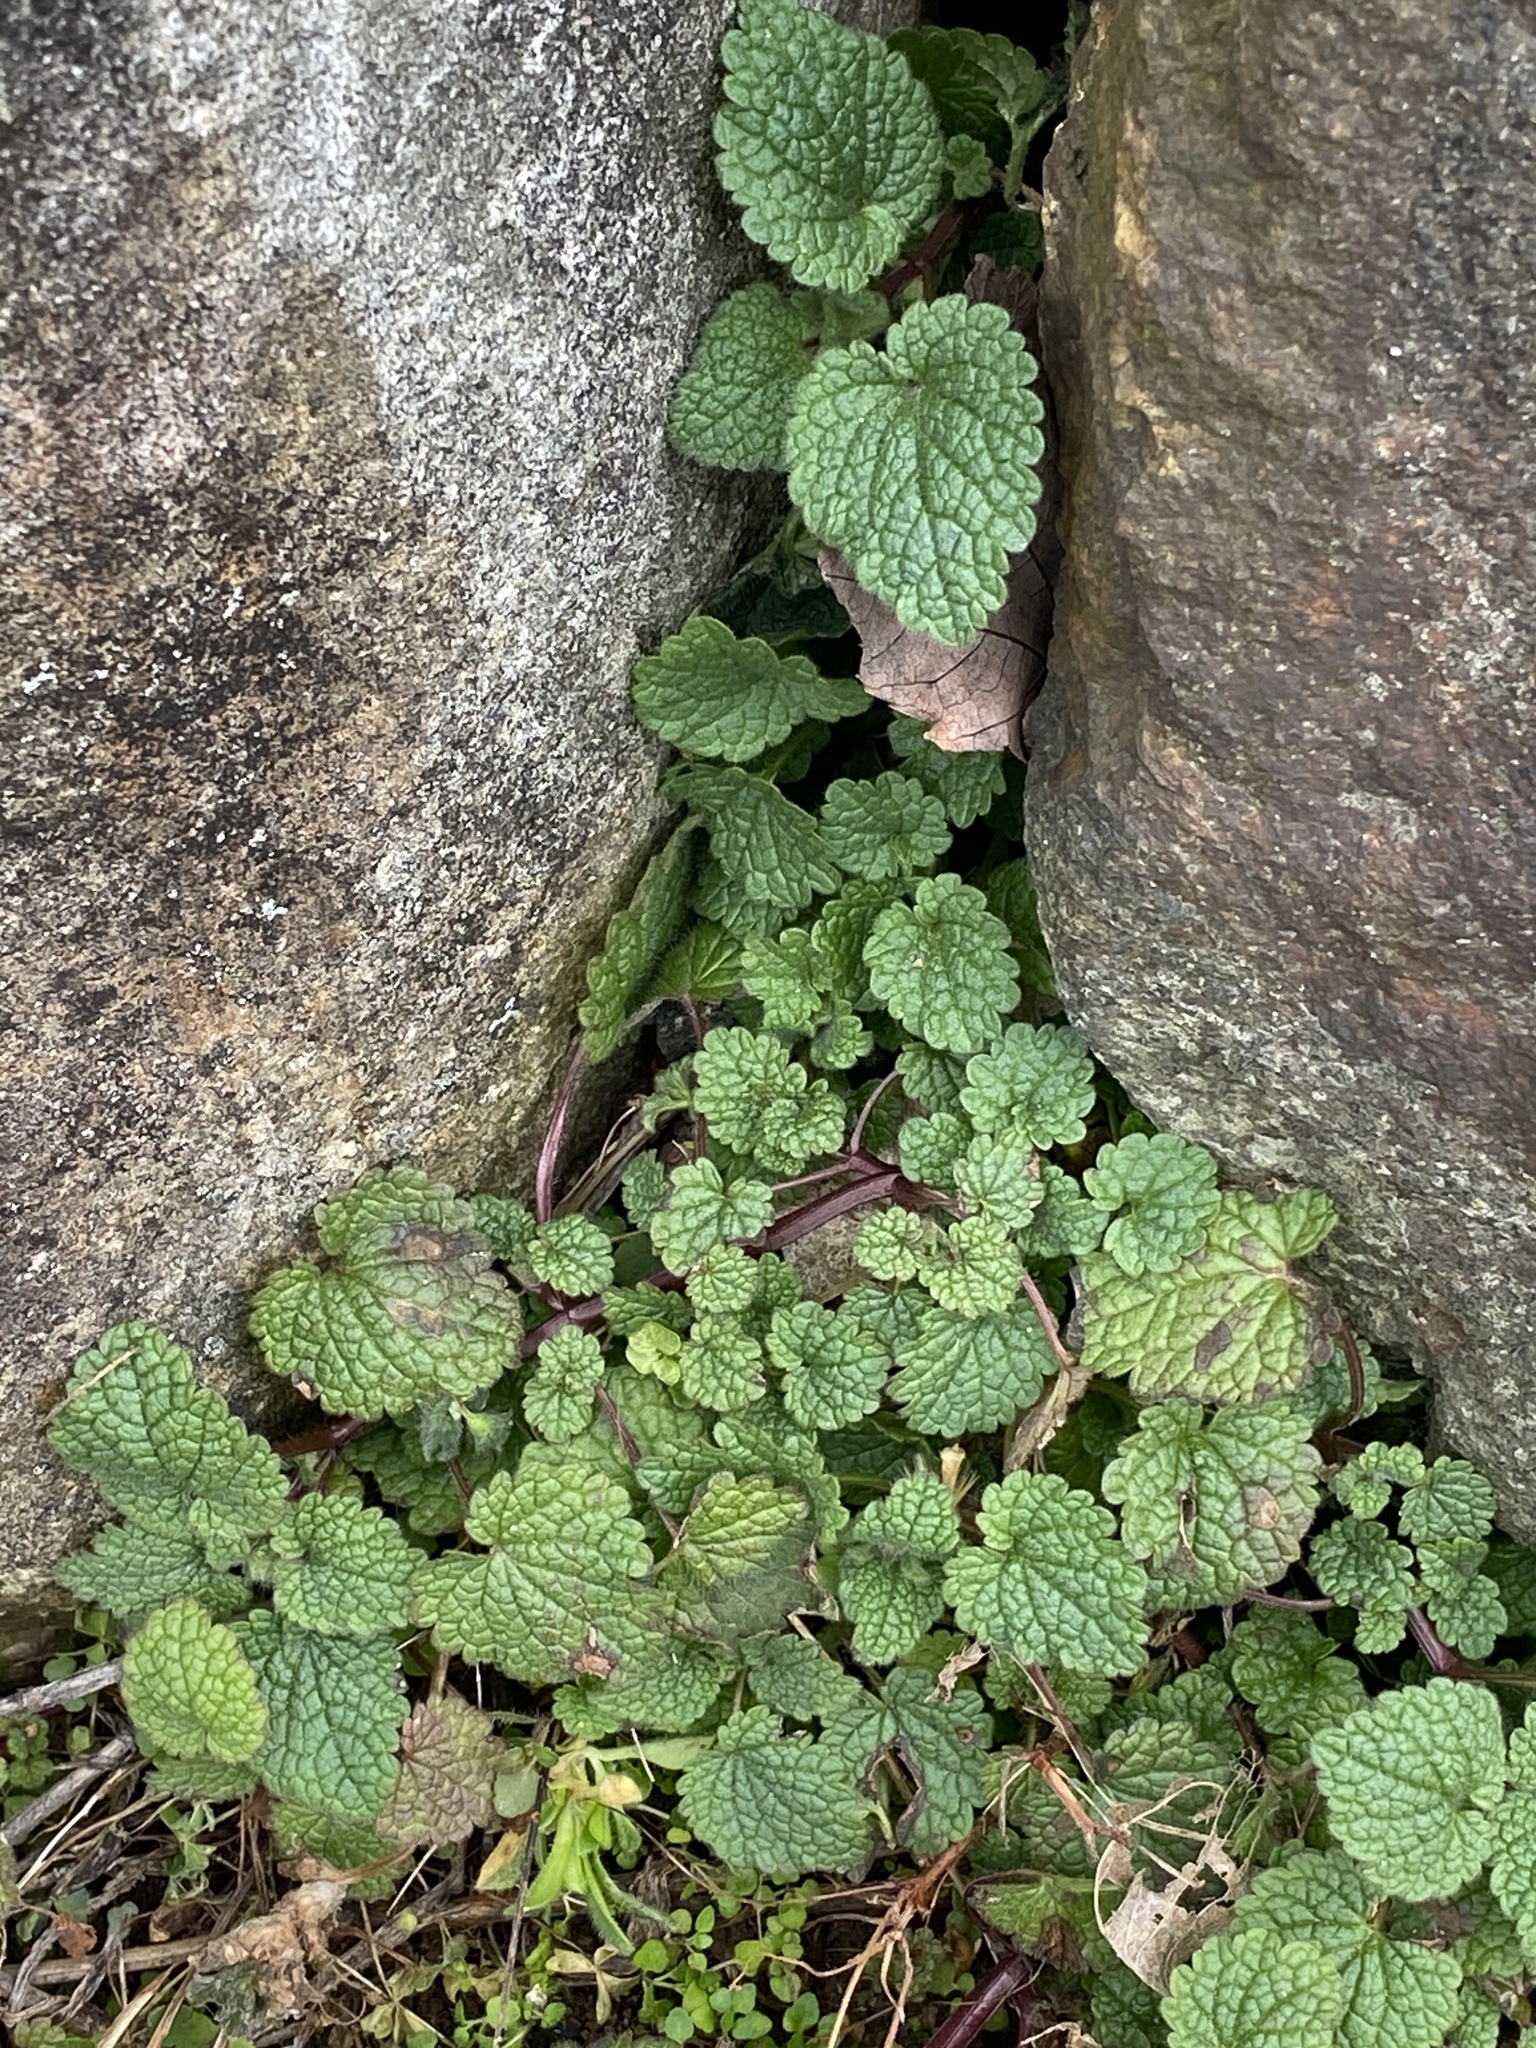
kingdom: Plantae
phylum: Tracheophyta
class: Magnoliopsida
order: Lamiales
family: Lamiaceae
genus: Lamium
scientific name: Lamium purpureum
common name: Red dead-nettle
